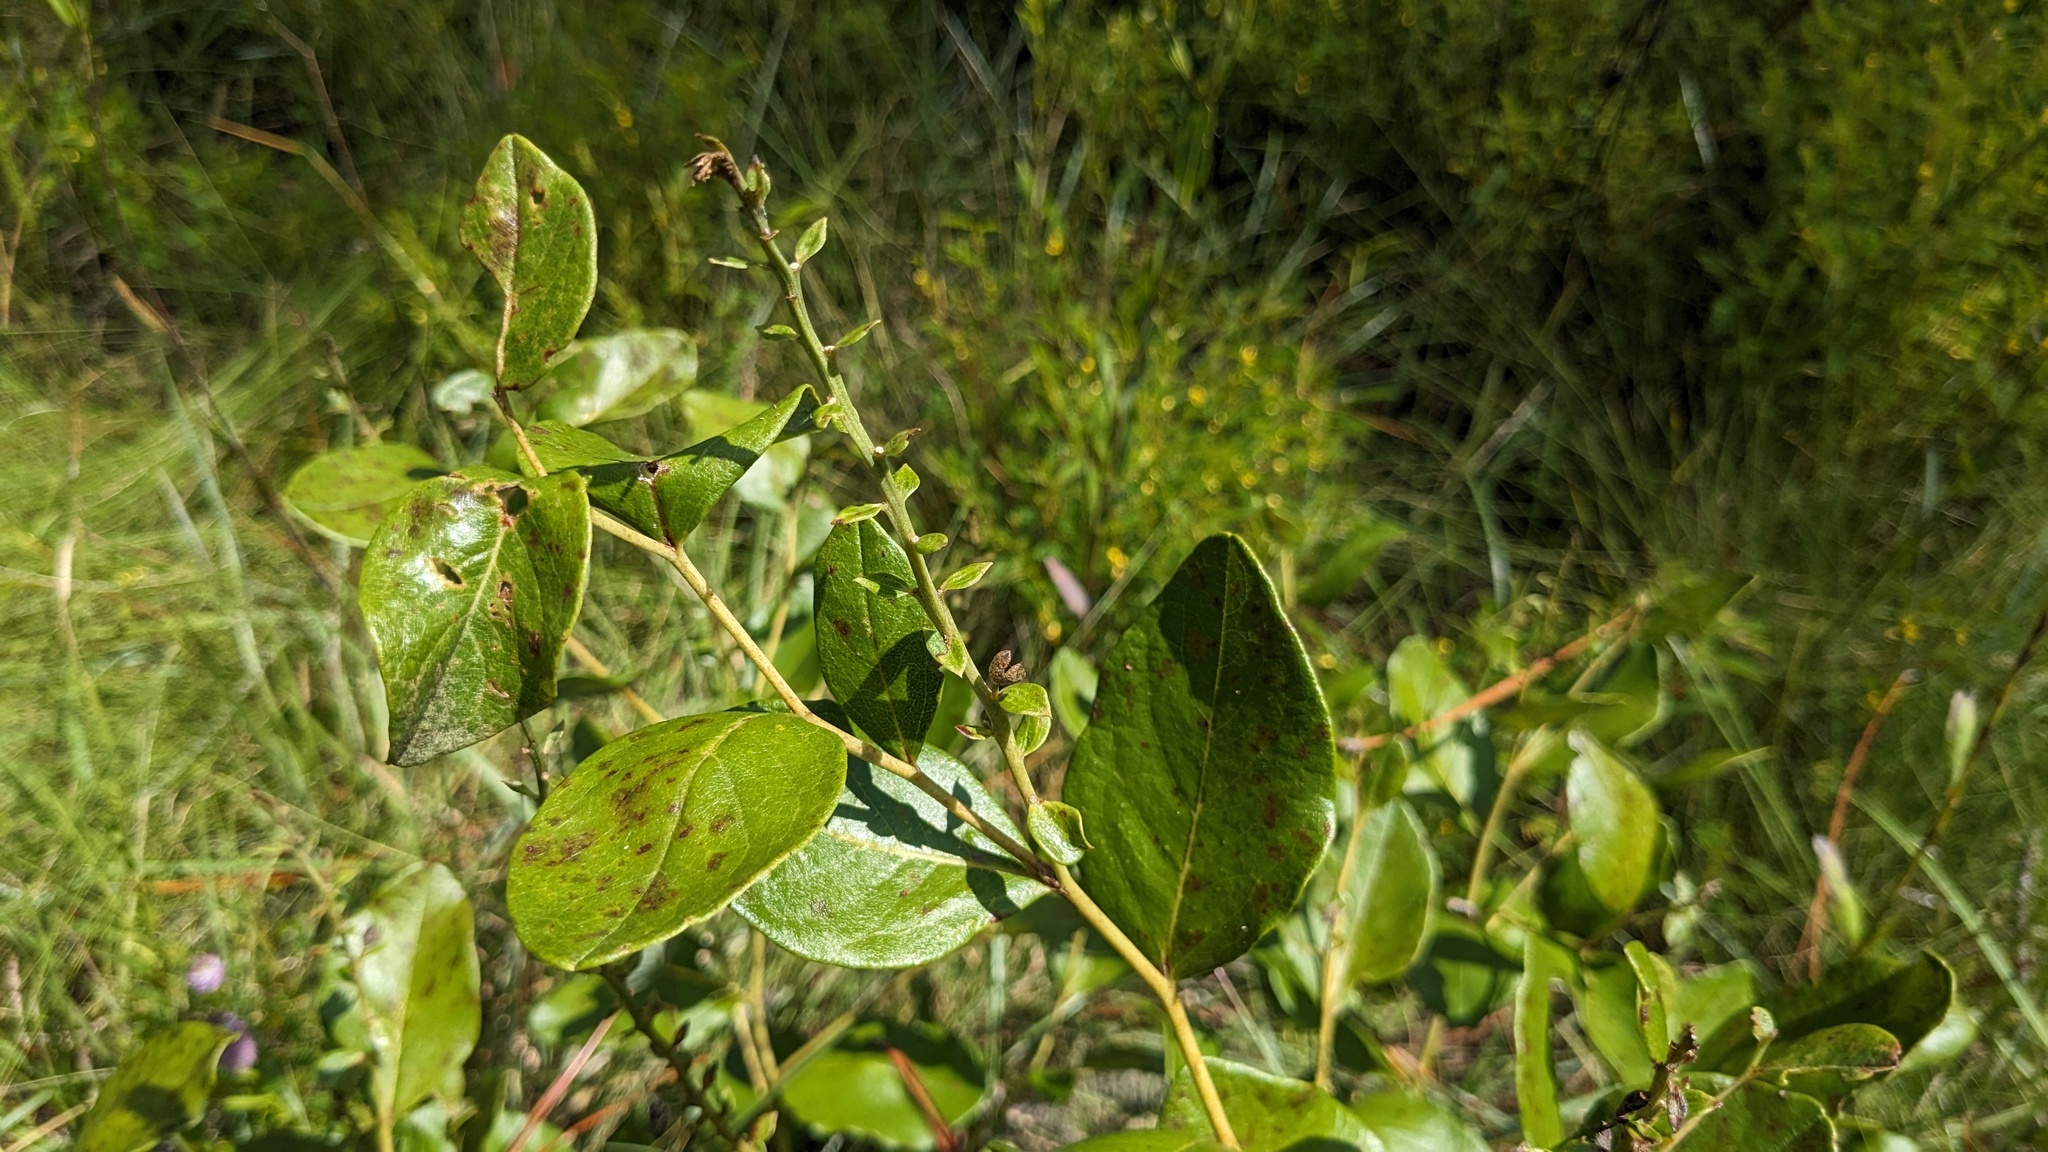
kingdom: Plantae
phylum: Tracheophyta
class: Magnoliopsida
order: Fabales
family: Fabaceae
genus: Baptisia
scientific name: Baptisia simplicifolia
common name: Scareweed
